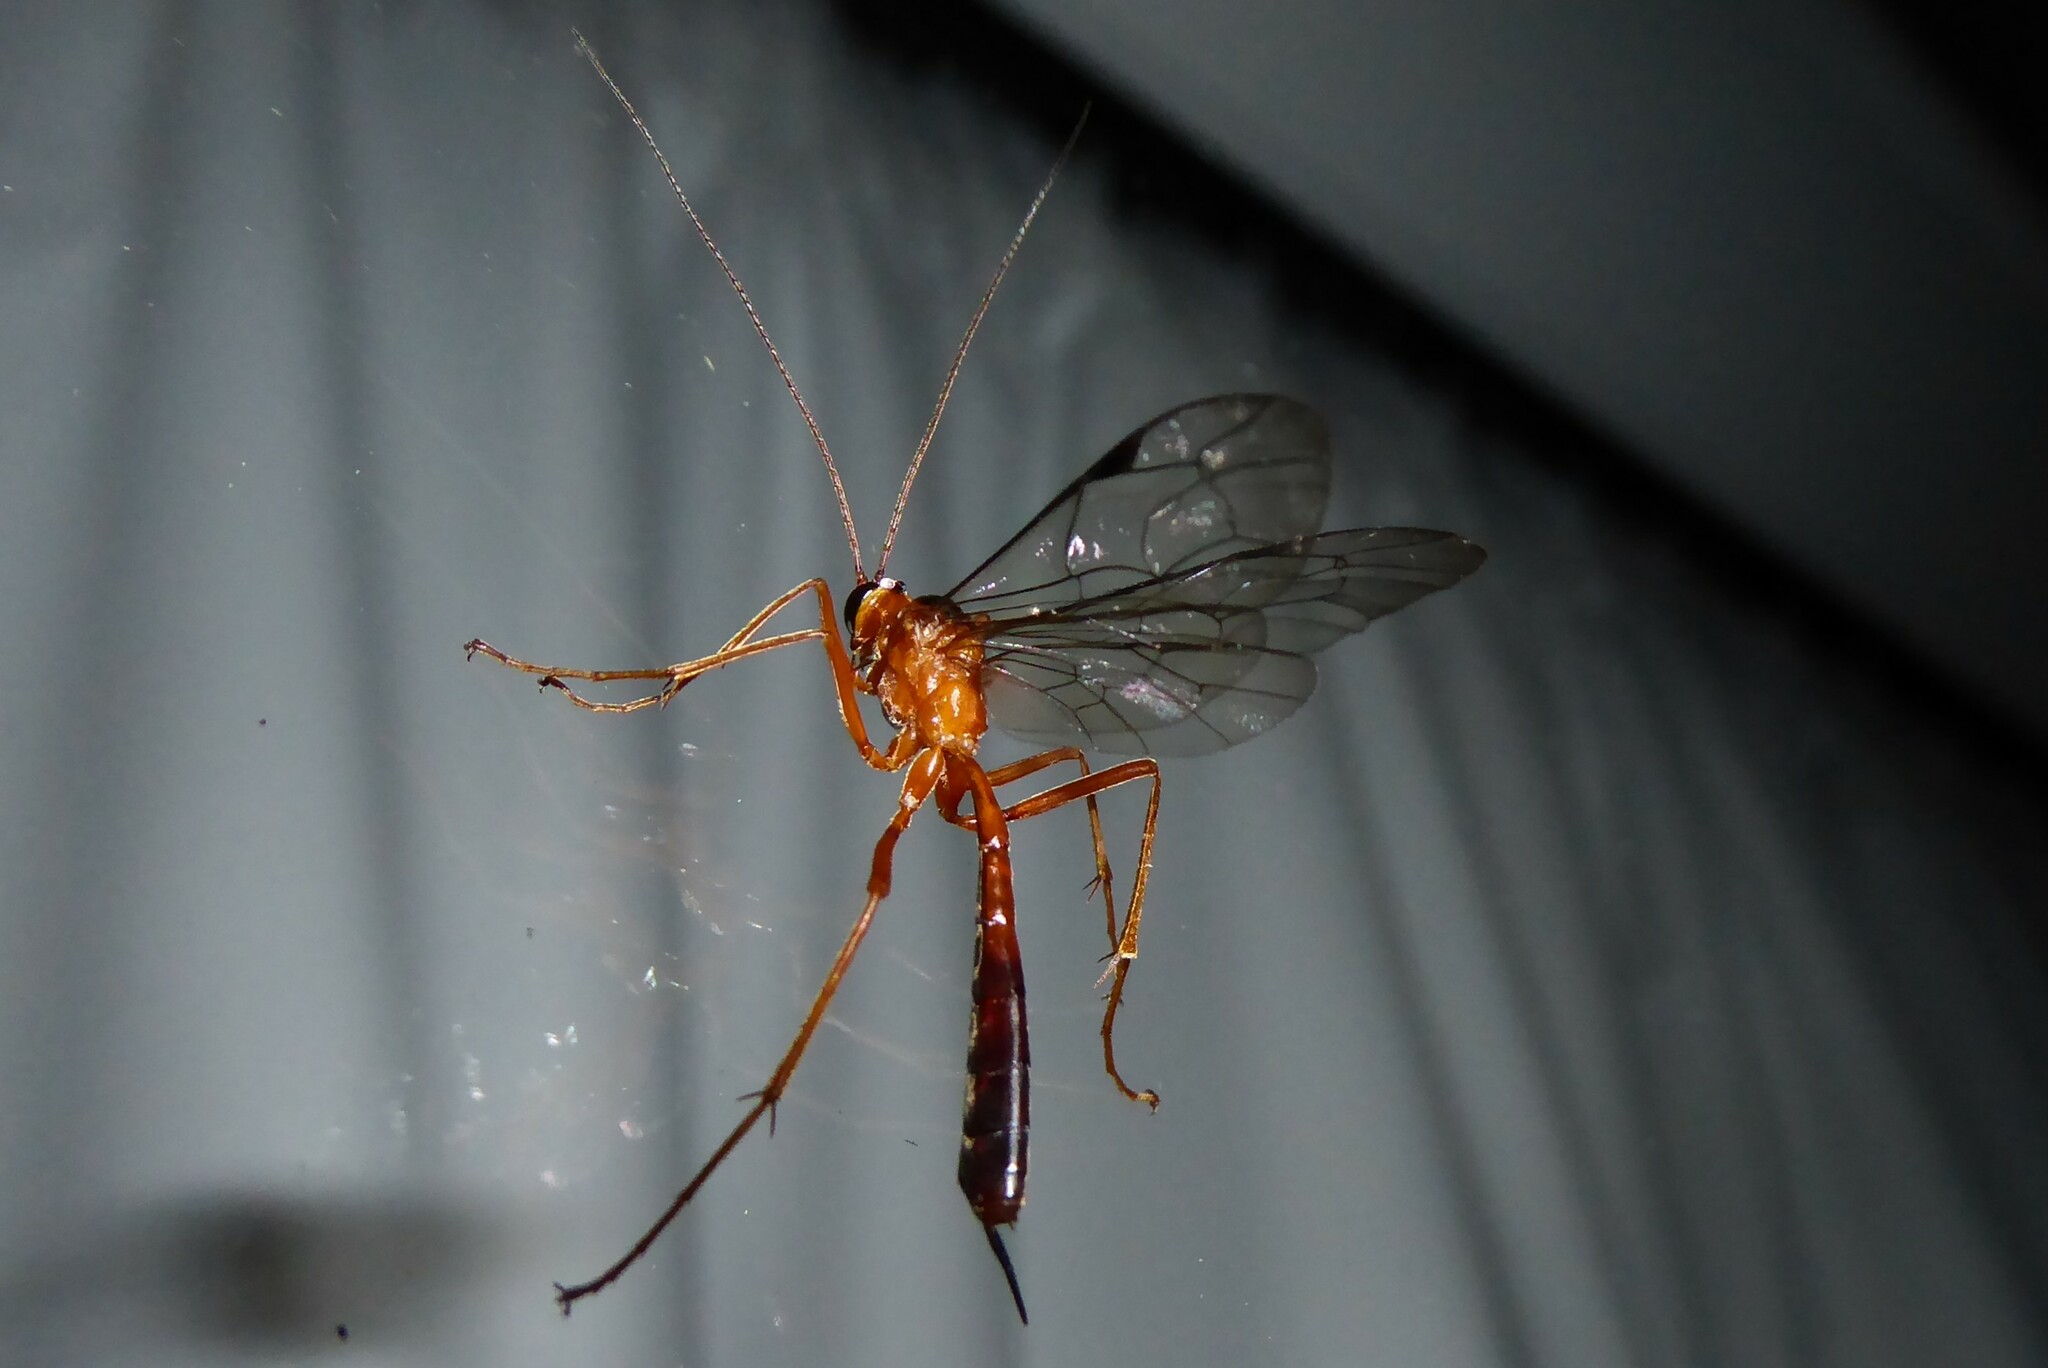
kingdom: Animalia
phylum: Arthropoda
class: Insecta
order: Hymenoptera
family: Ichneumonidae
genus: Netelia
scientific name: Netelia ephippiata
